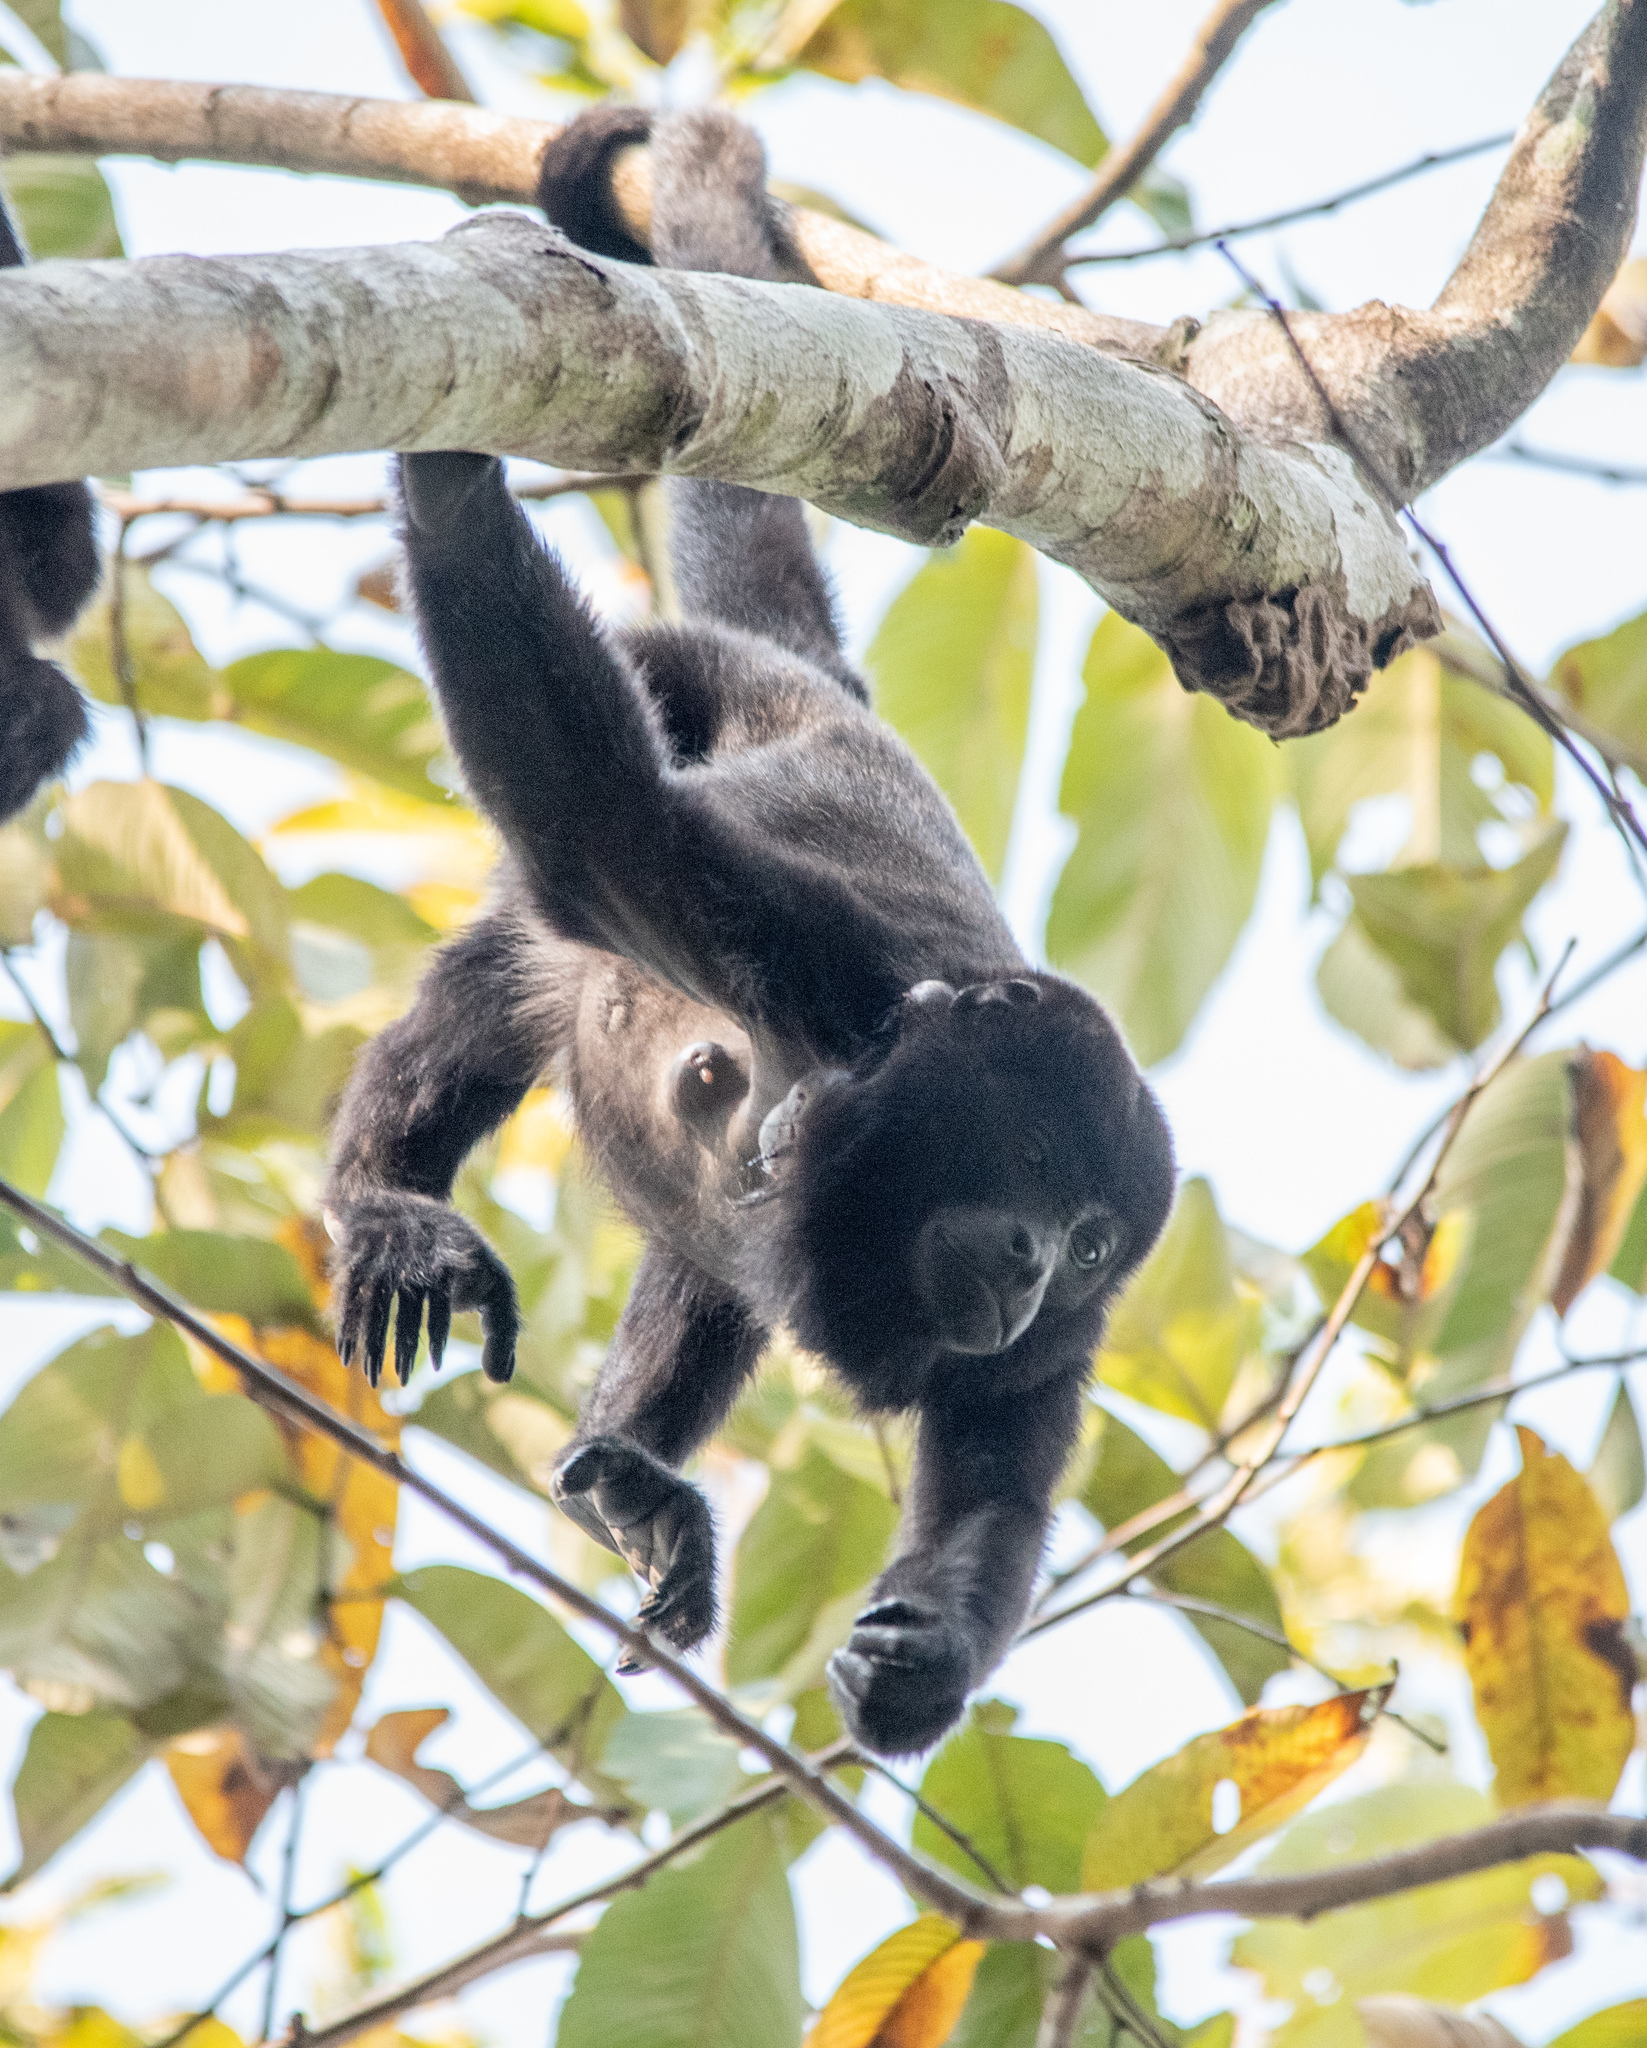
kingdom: Animalia
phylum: Chordata
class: Mammalia
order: Primates
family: Atelidae
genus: Alouatta
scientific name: Alouatta palliata
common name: Mantled howler
